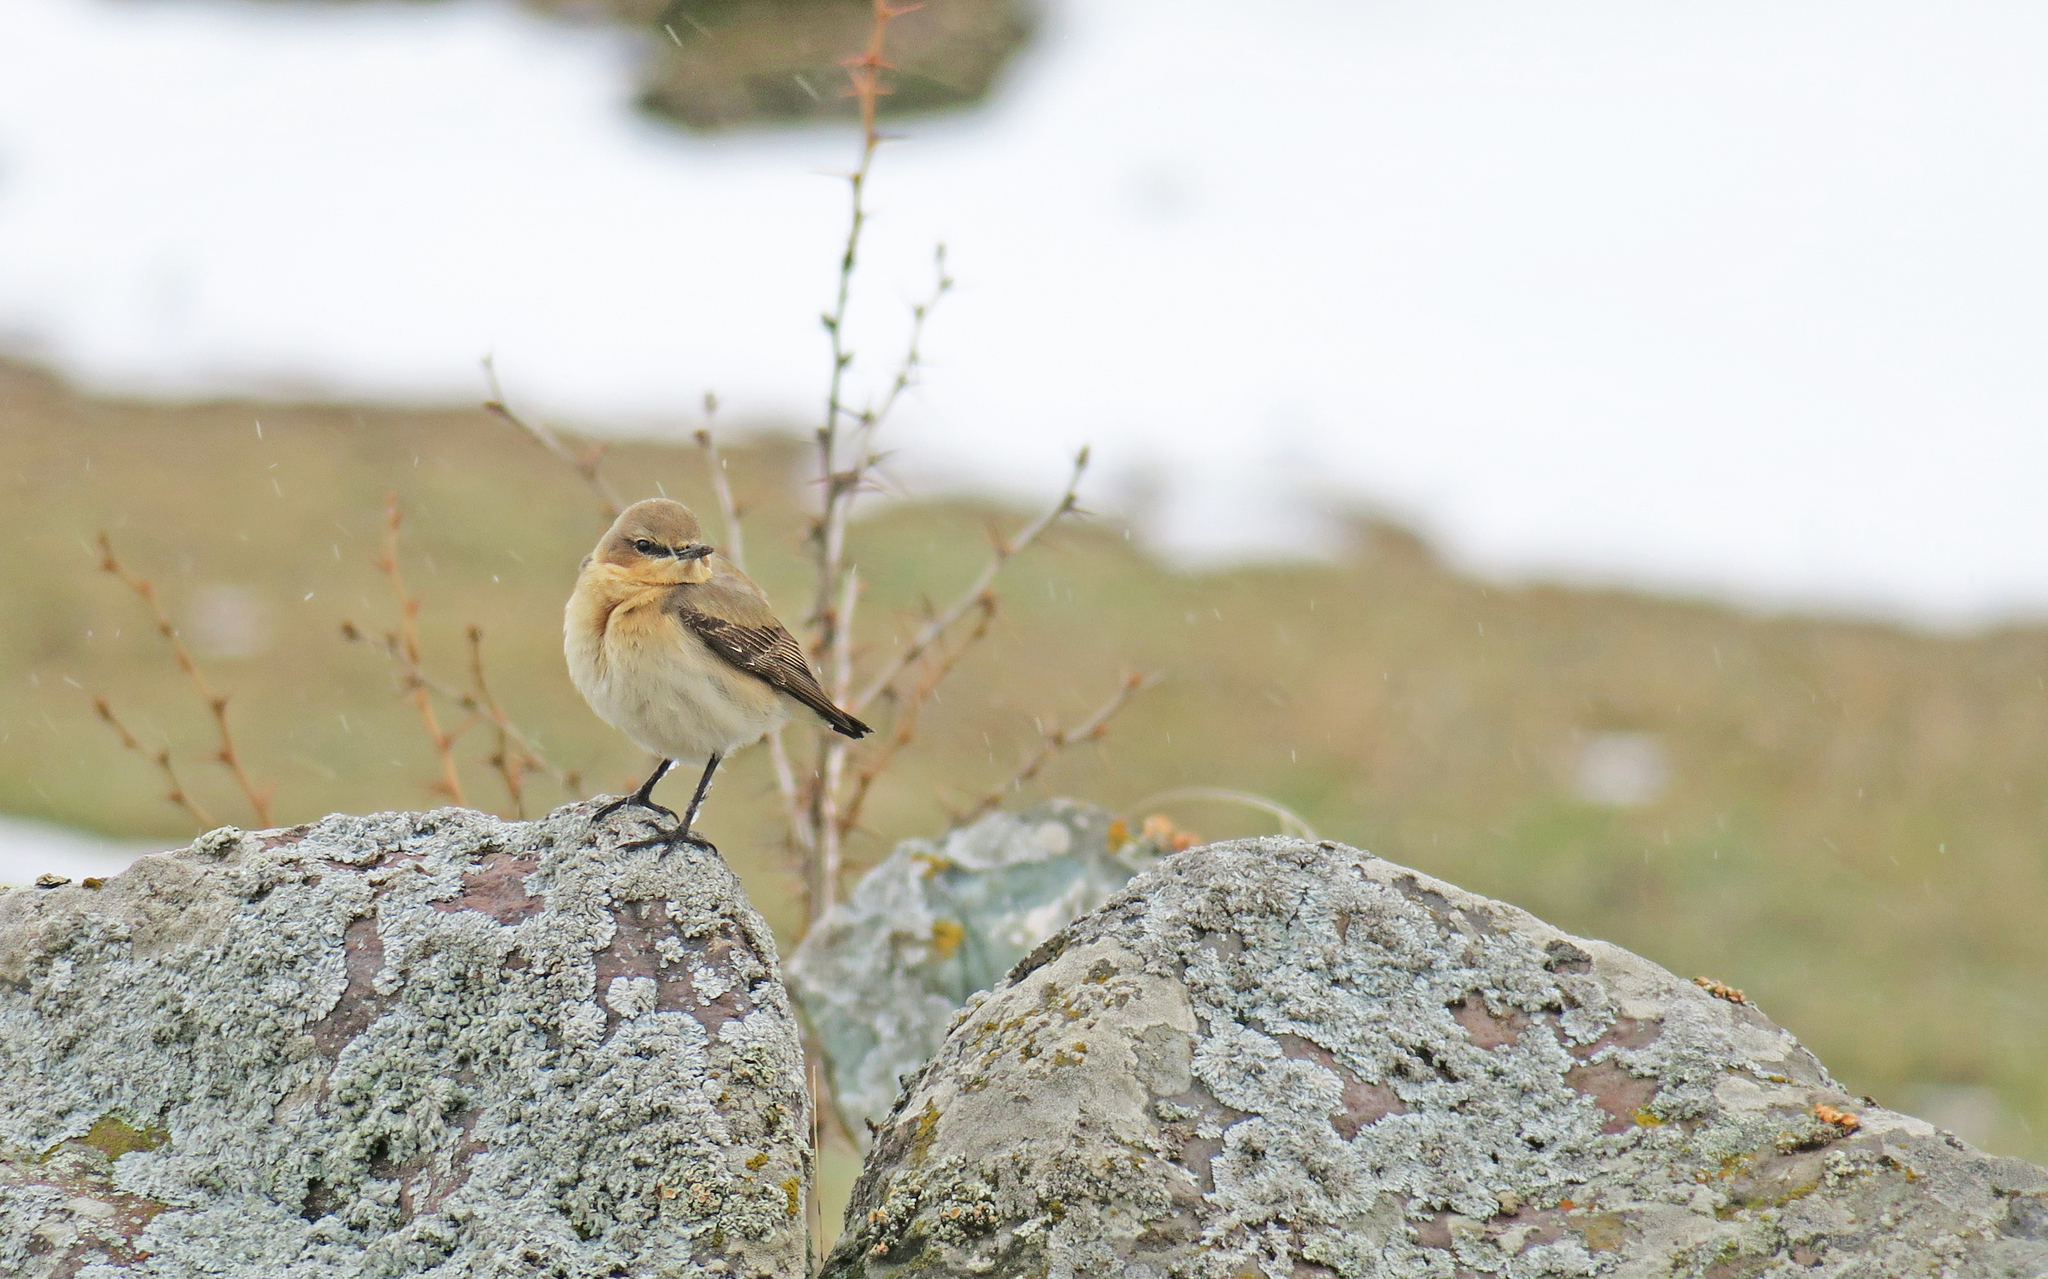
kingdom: Animalia
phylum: Chordata
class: Aves
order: Passeriformes
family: Muscicapidae
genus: Oenanthe
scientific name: Oenanthe oenanthe
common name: Northern wheatear
